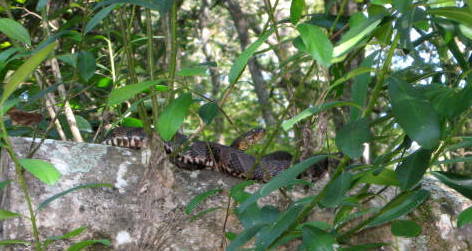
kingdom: Animalia
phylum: Chordata
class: Squamata
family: Colubridae
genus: Nerodia
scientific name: Nerodia taxispilota
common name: Brown water snake
